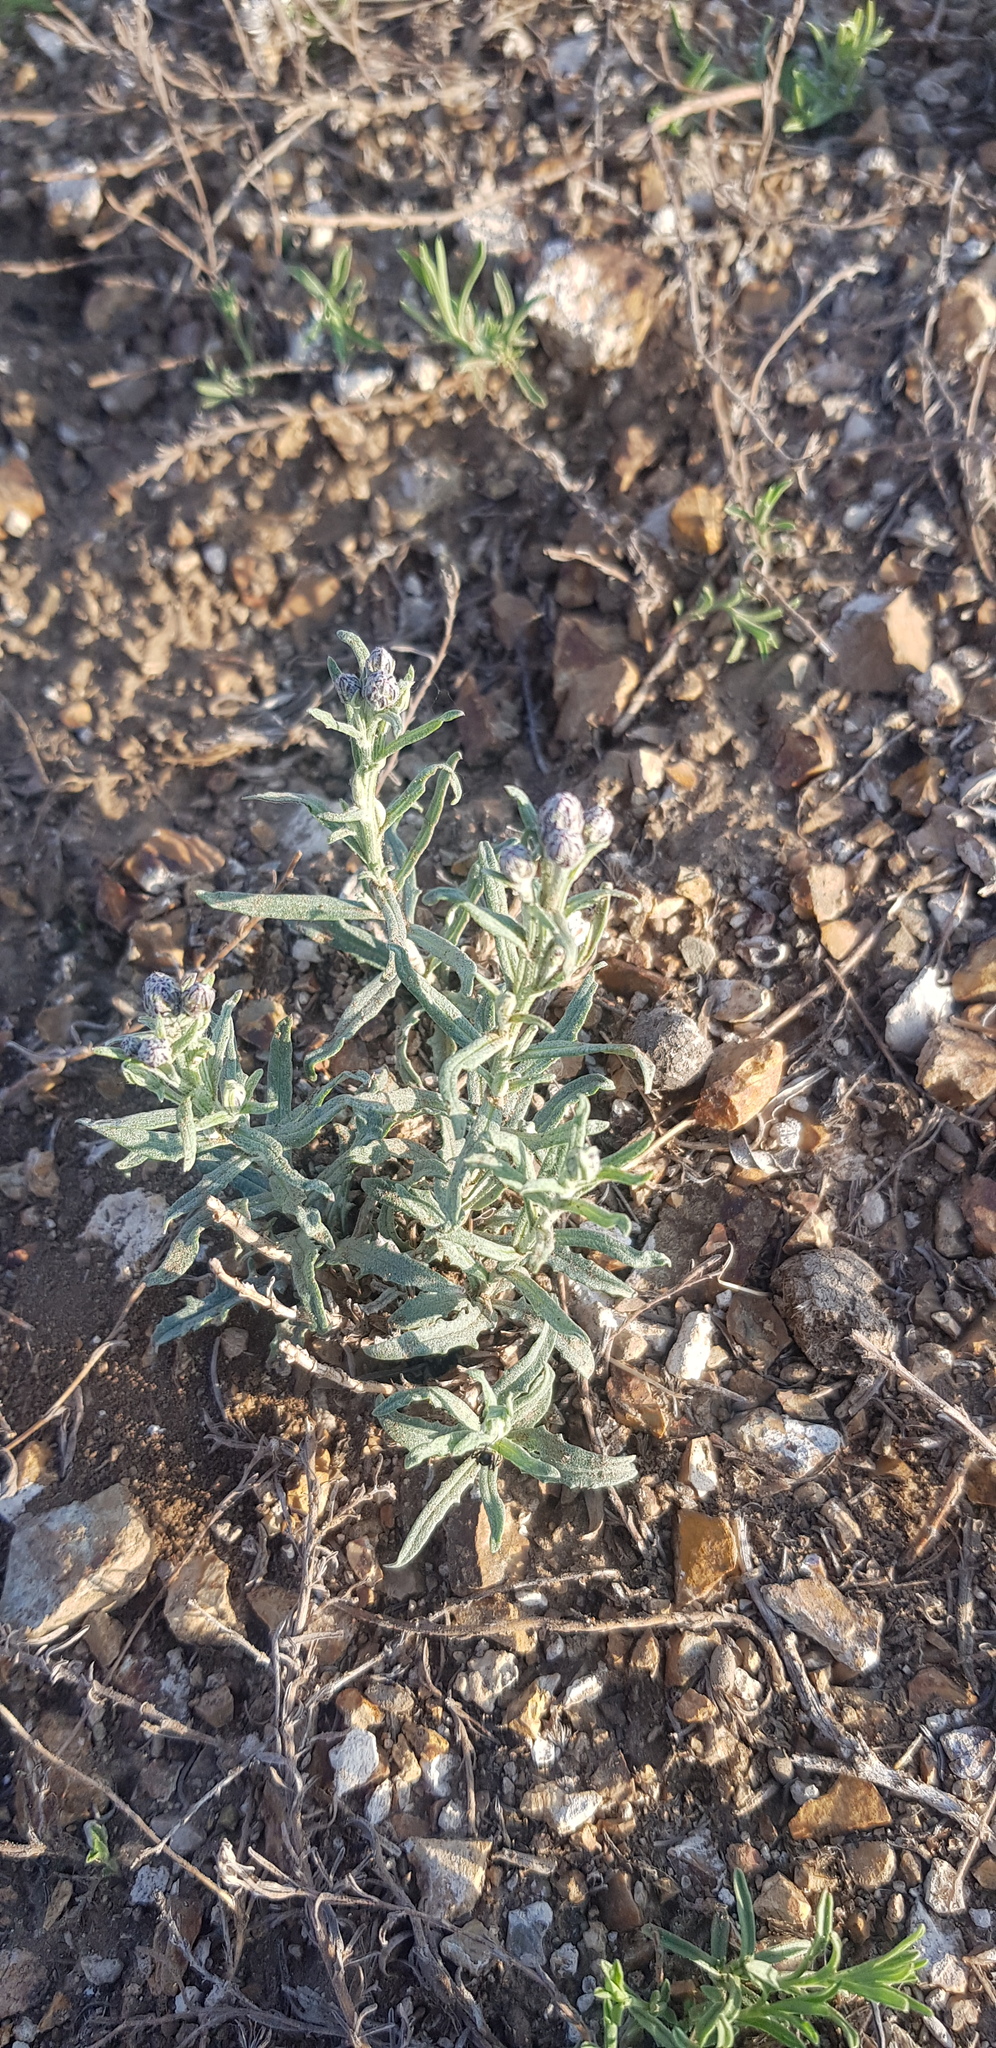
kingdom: Plantae
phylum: Tracheophyta
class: Magnoliopsida
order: Asterales
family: Asteraceae
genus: Saussurea
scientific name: Saussurea salicifolia
